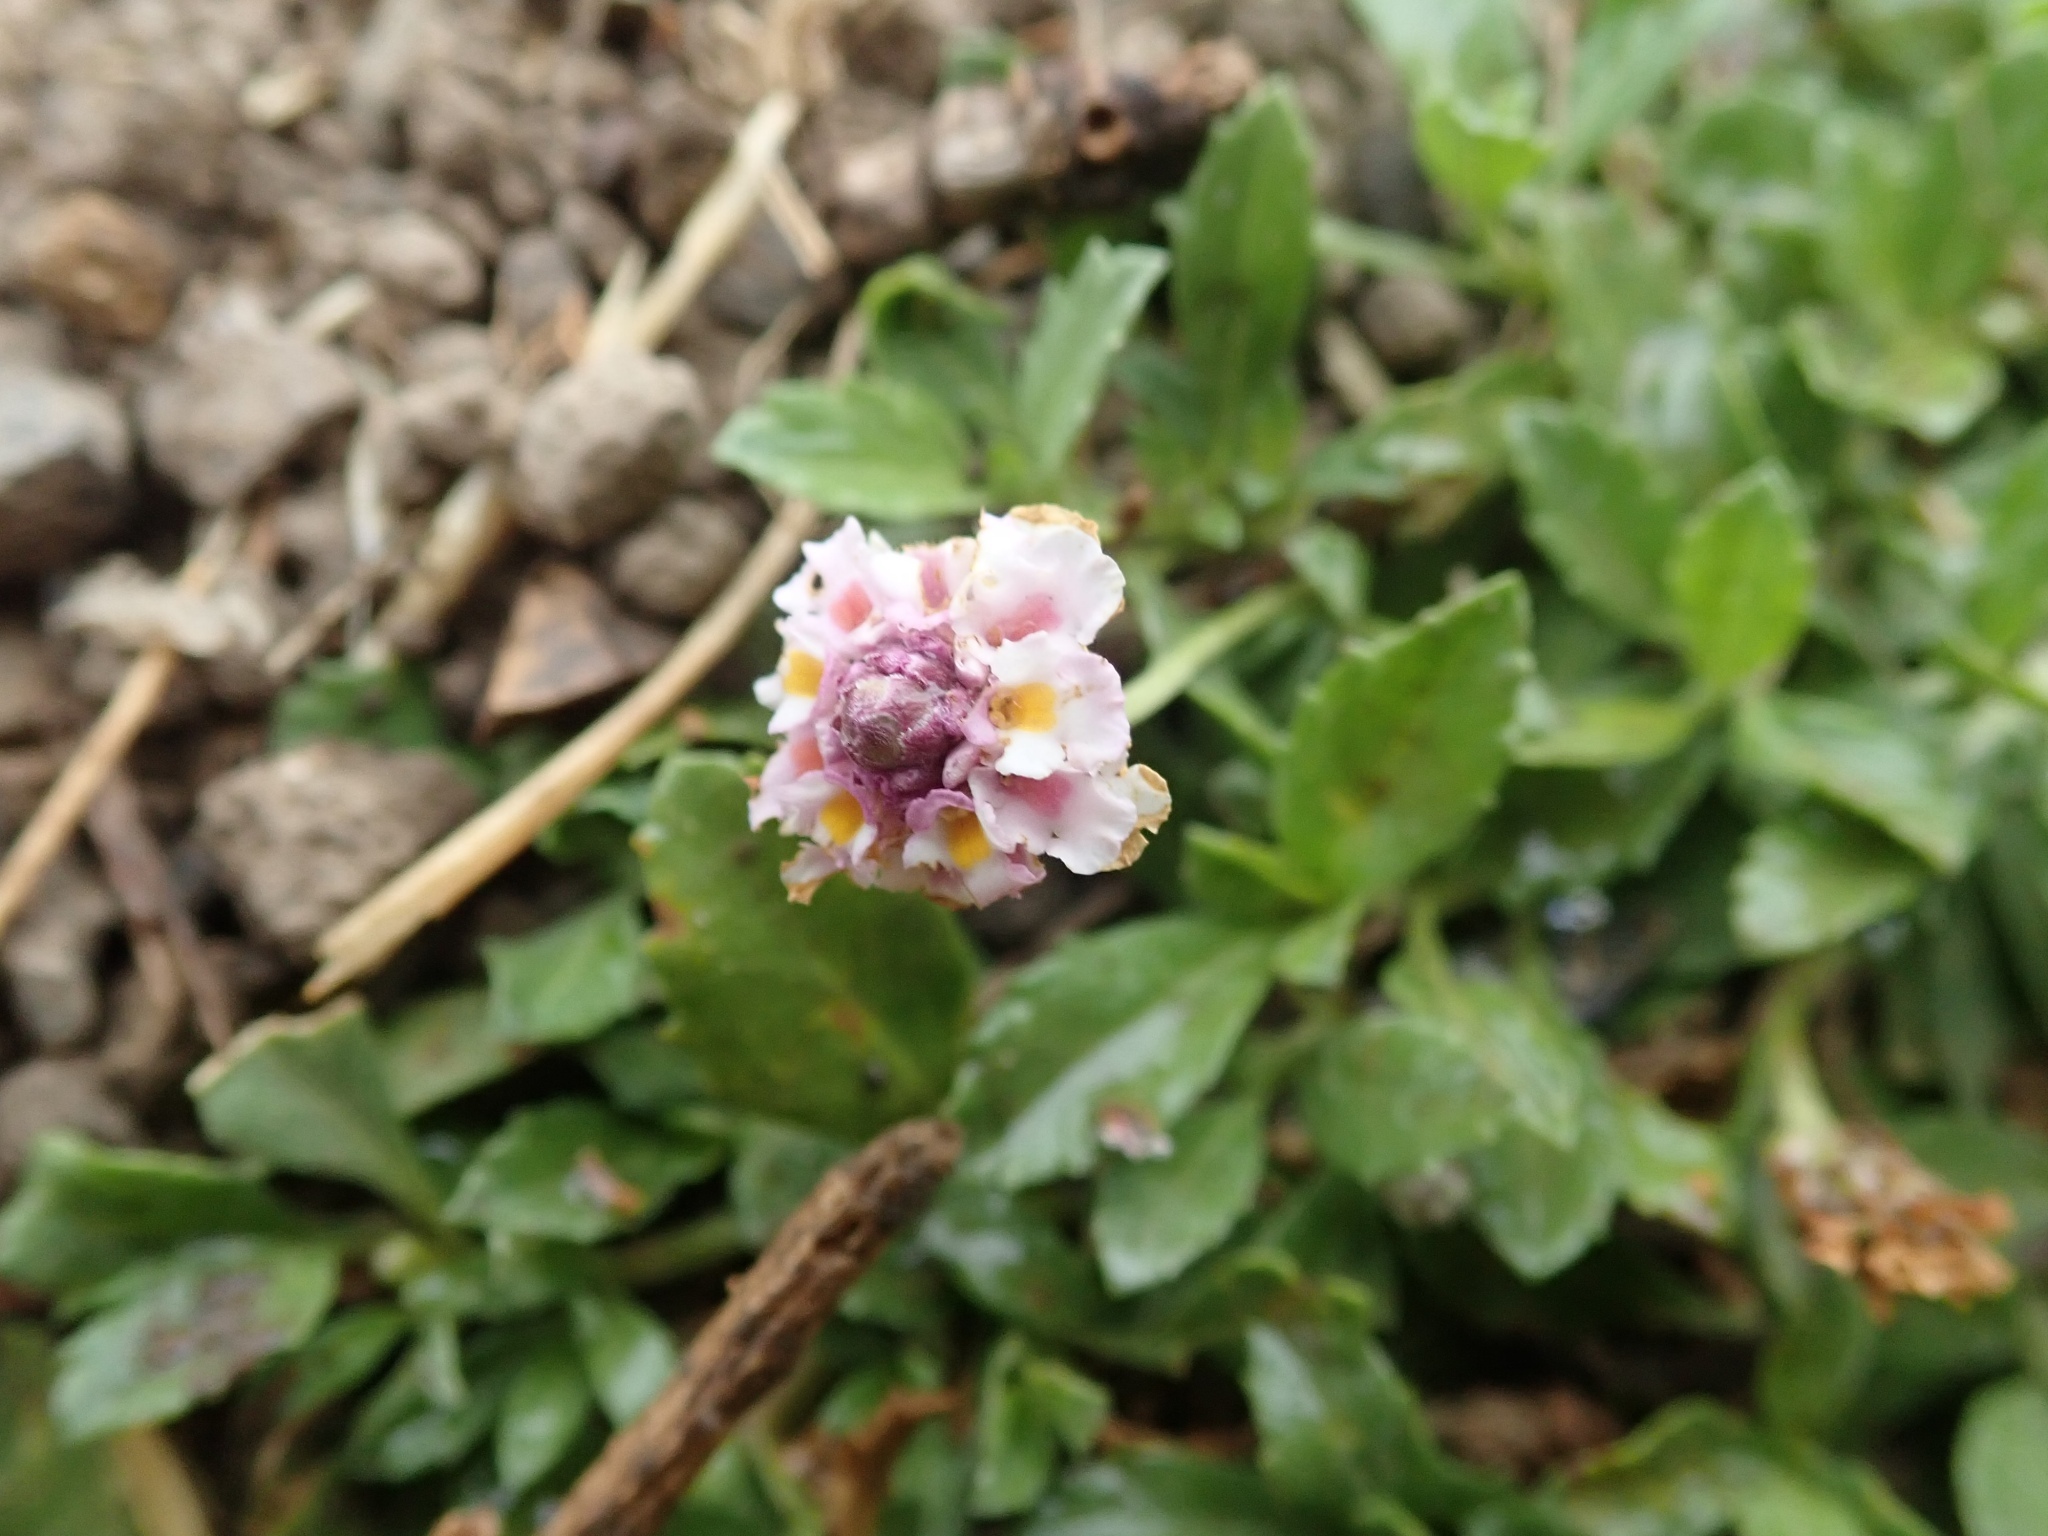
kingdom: Plantae
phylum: Tracheophyta
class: Magnoliopsida
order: Lamiales
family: Verbenaceae
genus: Phyla
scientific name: Phyla nodiflora
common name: Frogfruit
